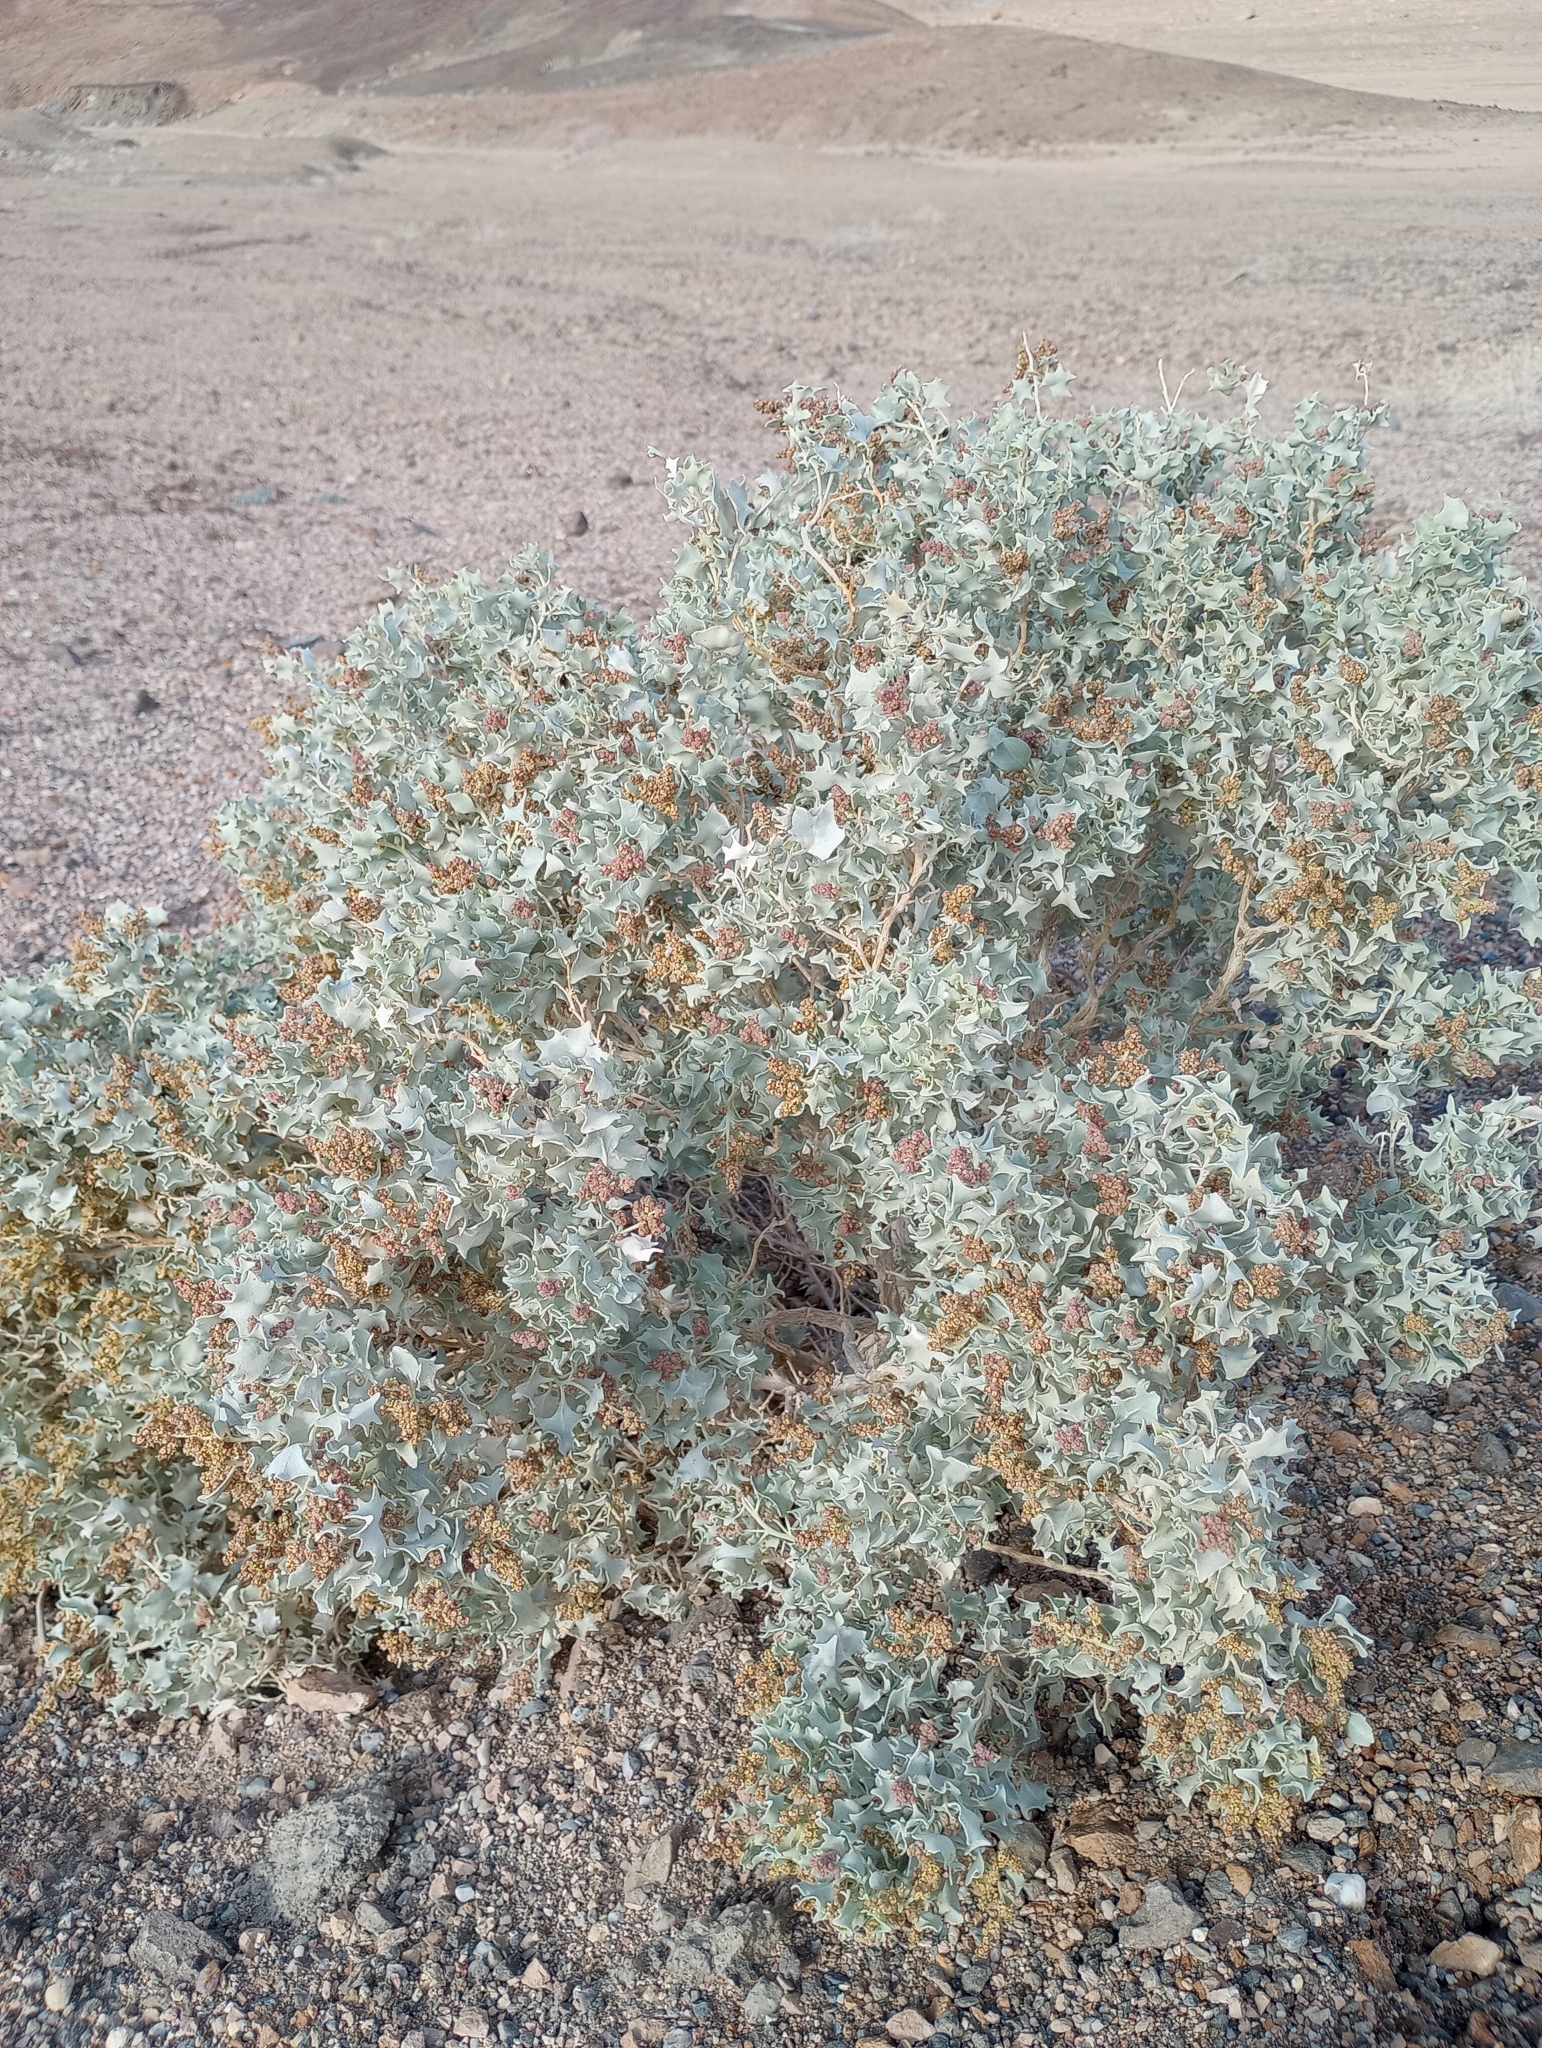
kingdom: Plantae
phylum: Tracheophyta
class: Magnoliopsida
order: Caryophyllales
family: Amaranthaceae
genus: Atriplex
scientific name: Atriplex hymenelytra
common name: Desert-holly
